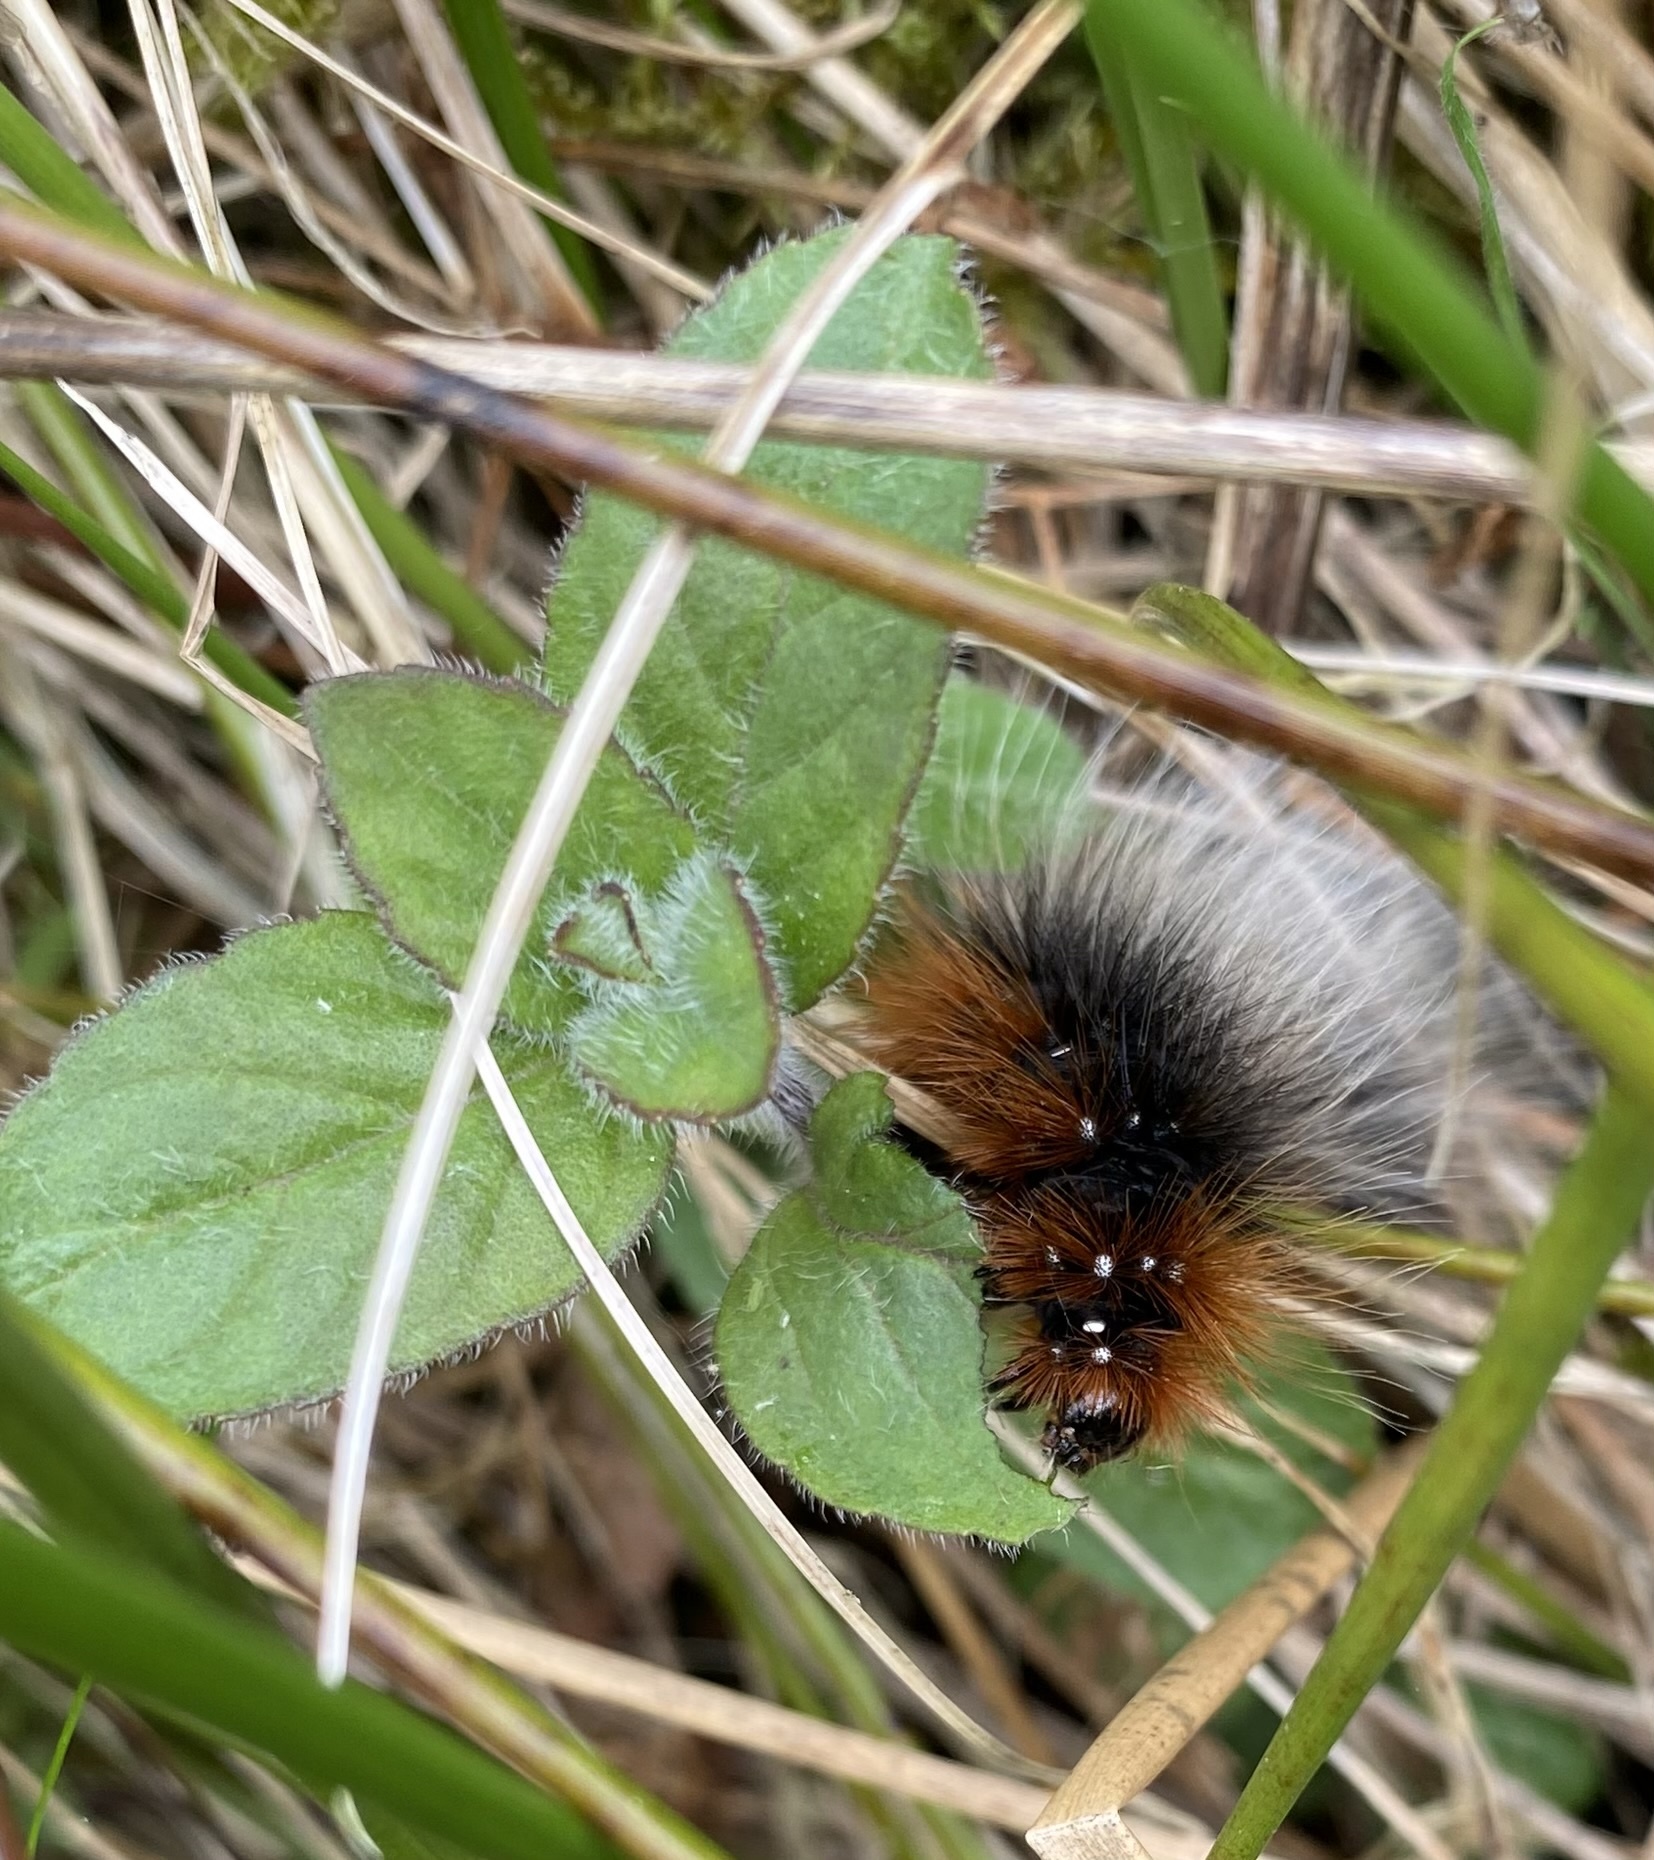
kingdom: Animalia
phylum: Arthropoda
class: Insecta
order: Lepidoptera
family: Erebidae
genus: Arctia
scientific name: Arctia caja
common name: Garden tiger
